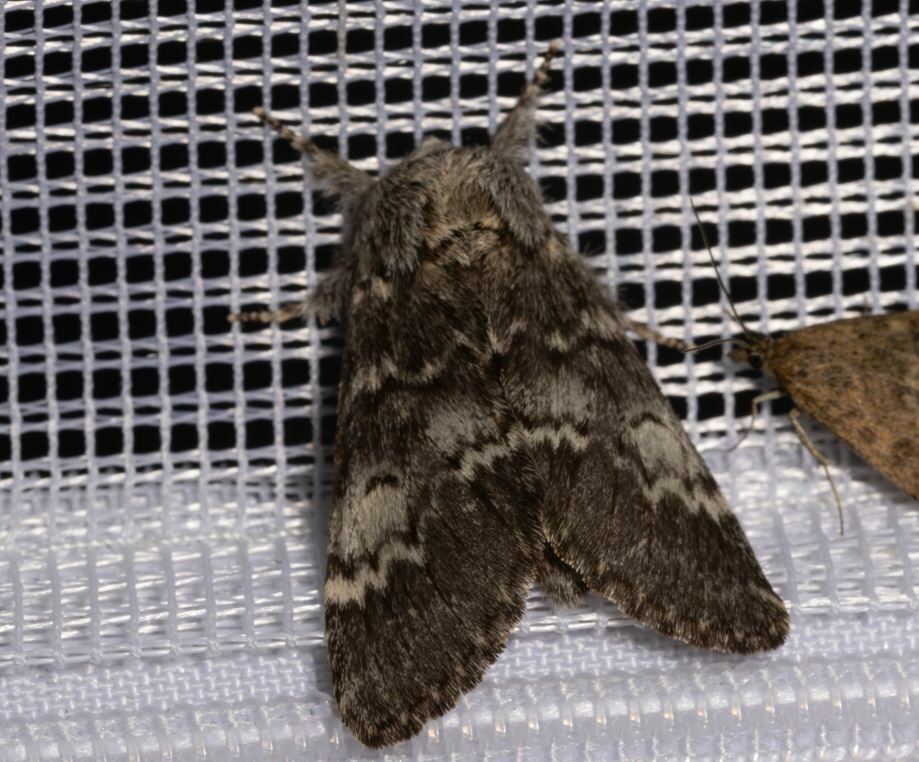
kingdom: Animalia
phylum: Arthropoda
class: Insecta
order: Lepidoptera
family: Notodontidae
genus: Drymonia
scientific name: Drymonia ruficornis
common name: Lunar marbled brown
